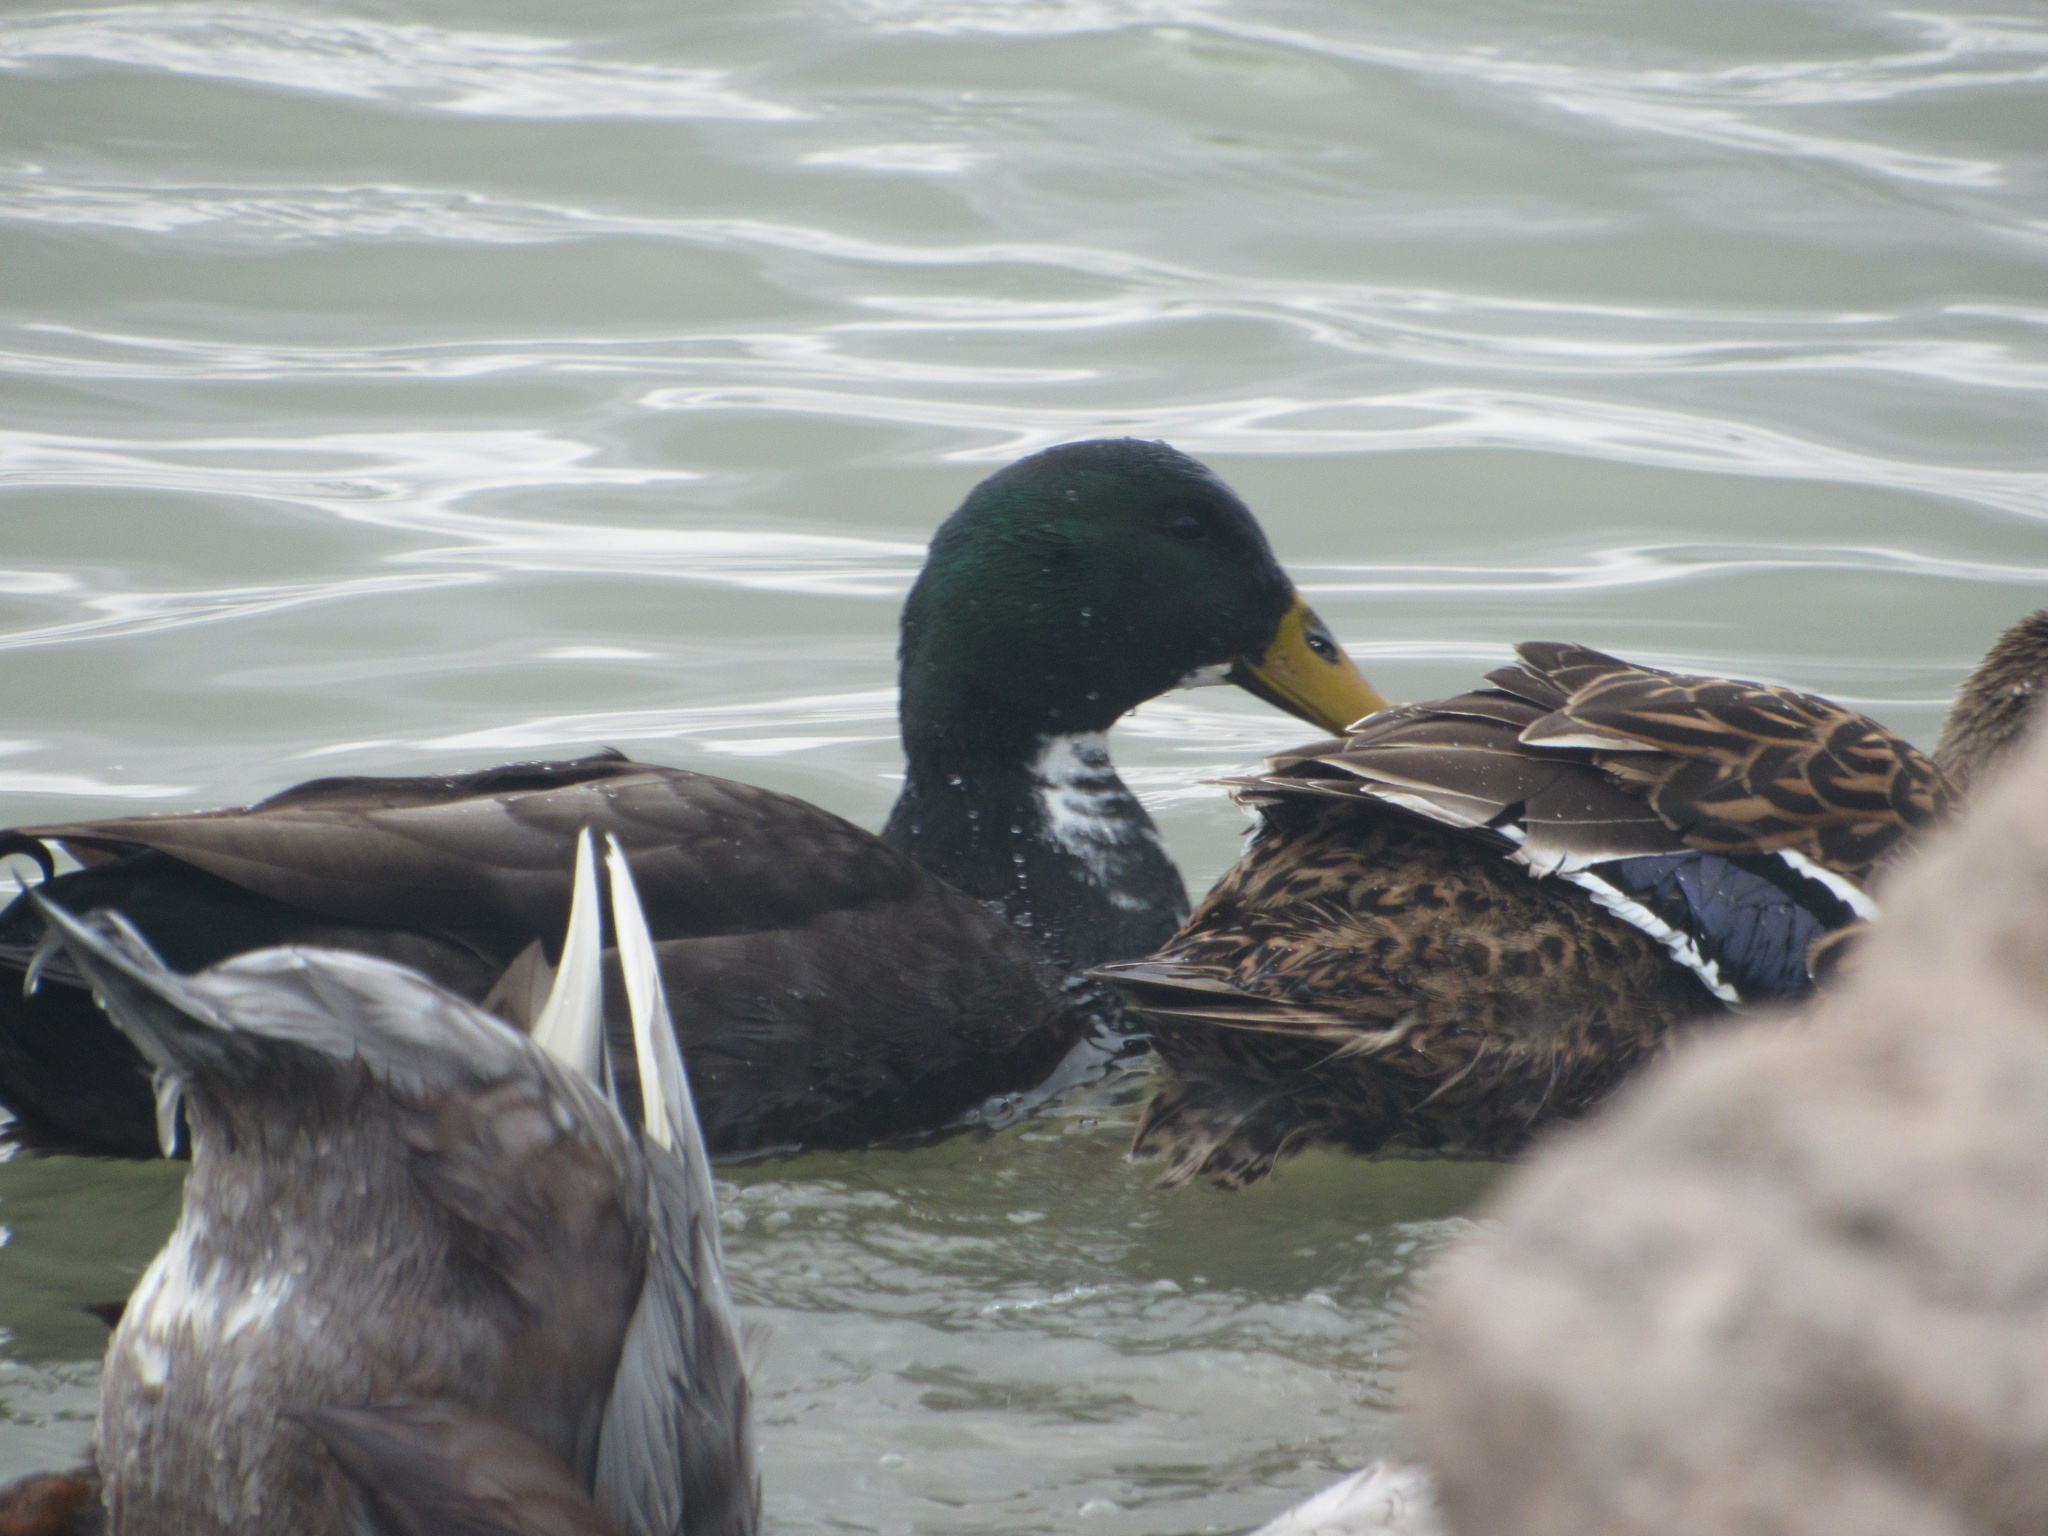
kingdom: Animalia
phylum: Chordata
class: Aves
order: Anseriformes
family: Anatidae
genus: Anas
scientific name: Anas platyrhynchos
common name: Mallard
